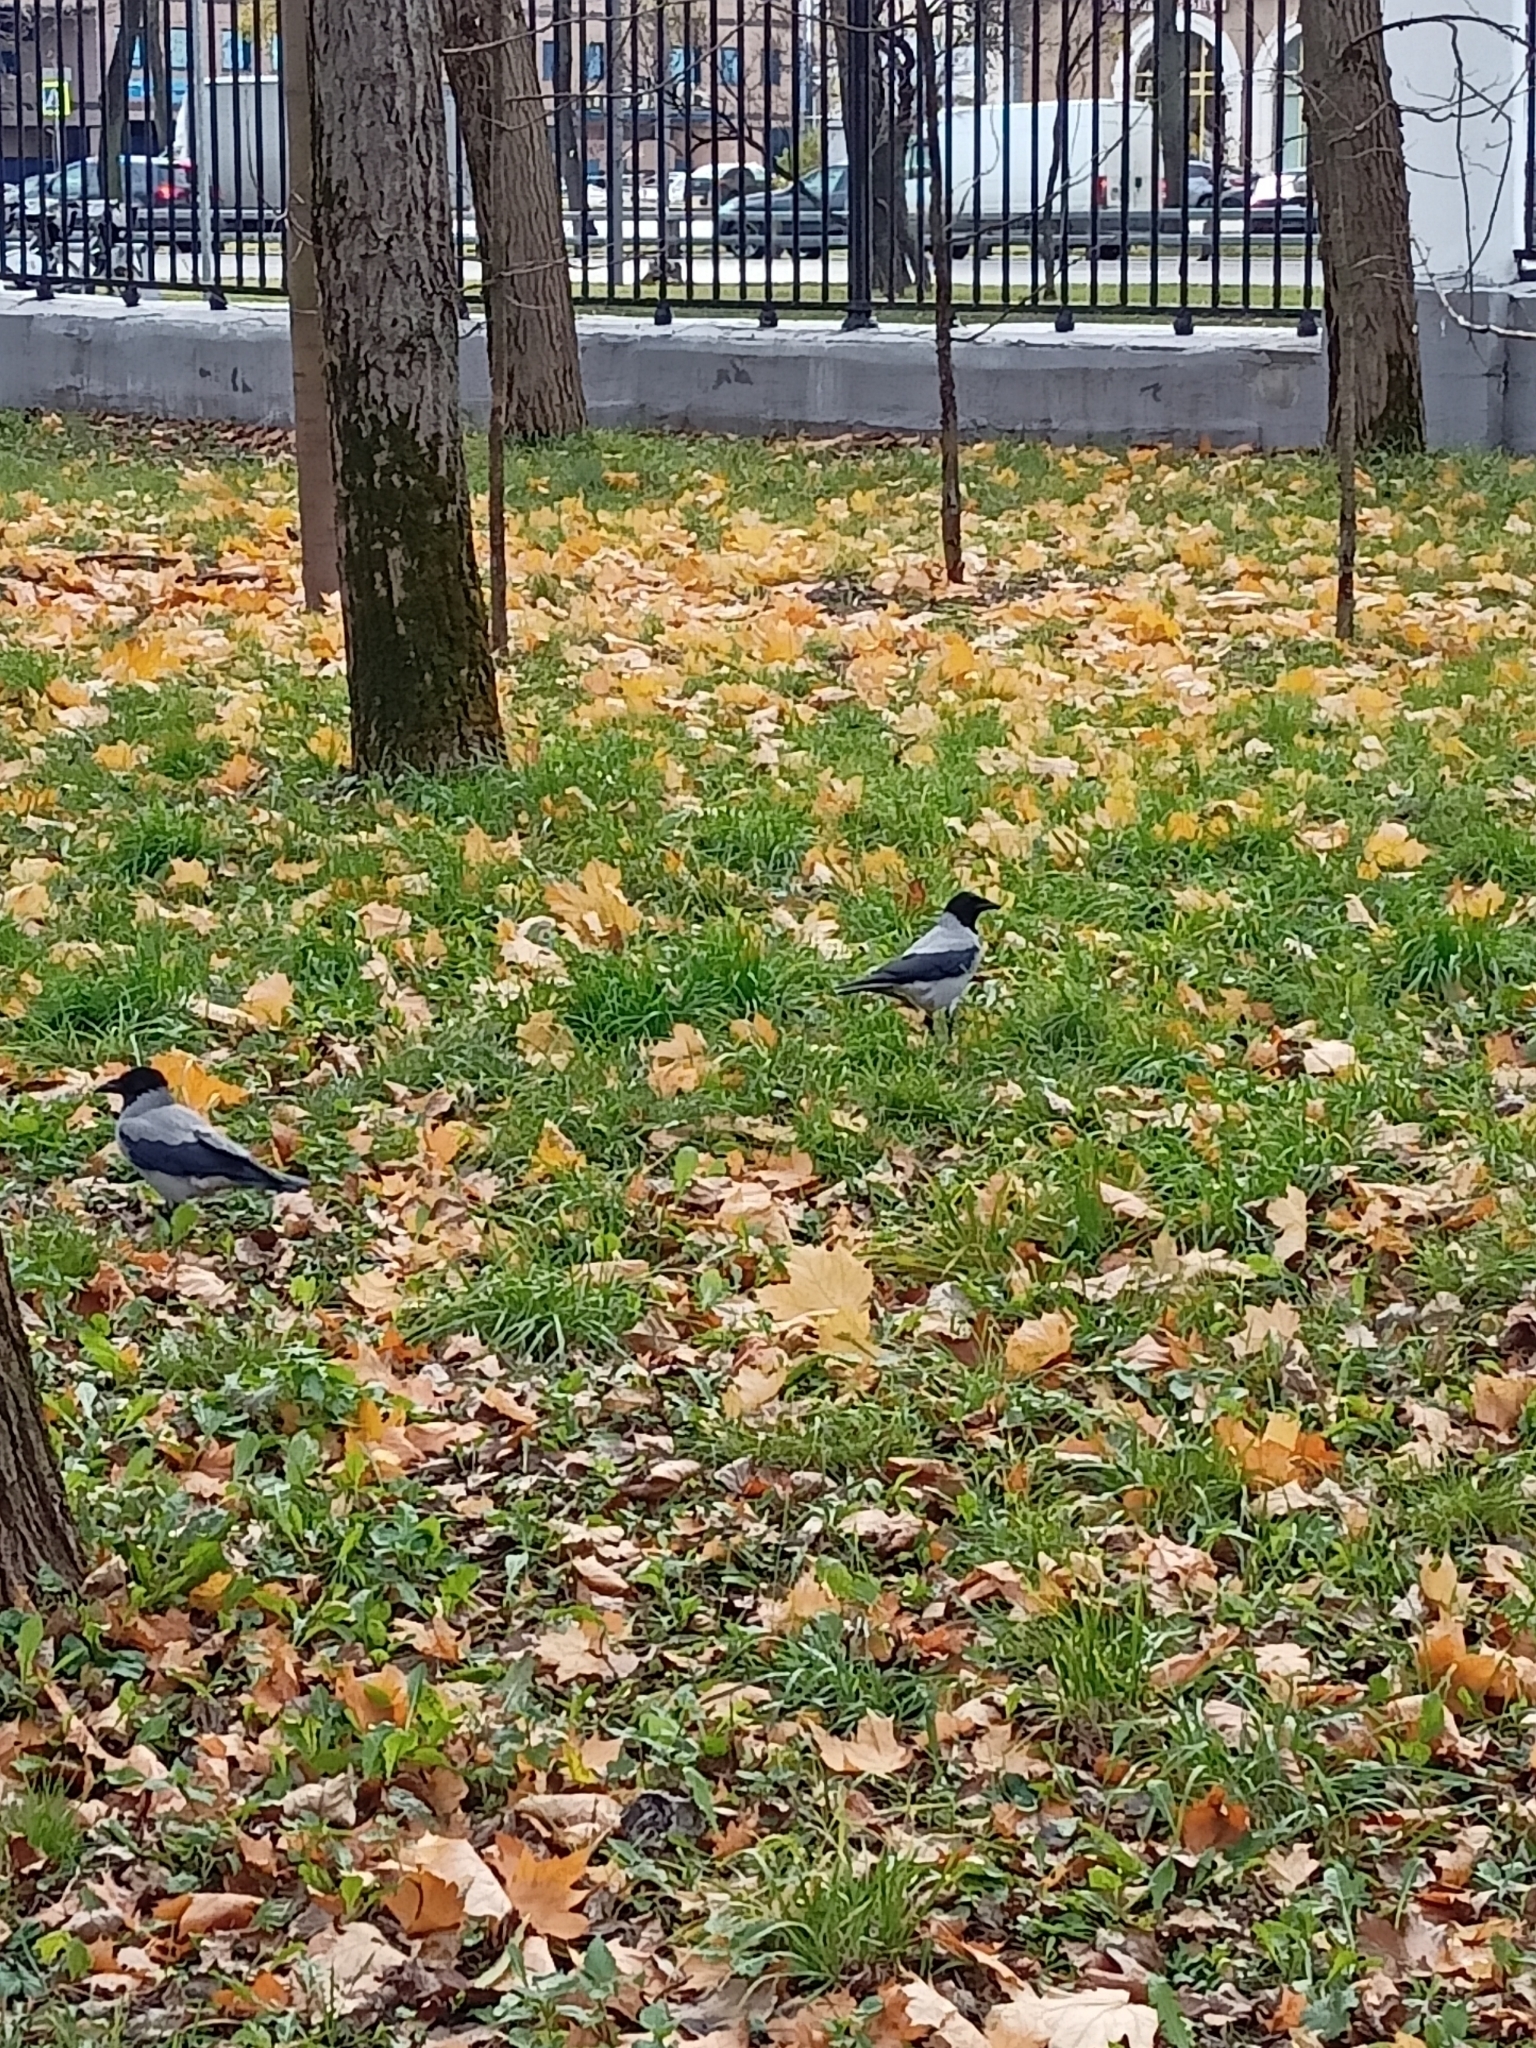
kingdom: Animalia
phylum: Chordata
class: Aves
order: Passeriformes
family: Corvidae
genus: Corvus
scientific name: Corvus cornix
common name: Hooded crow
